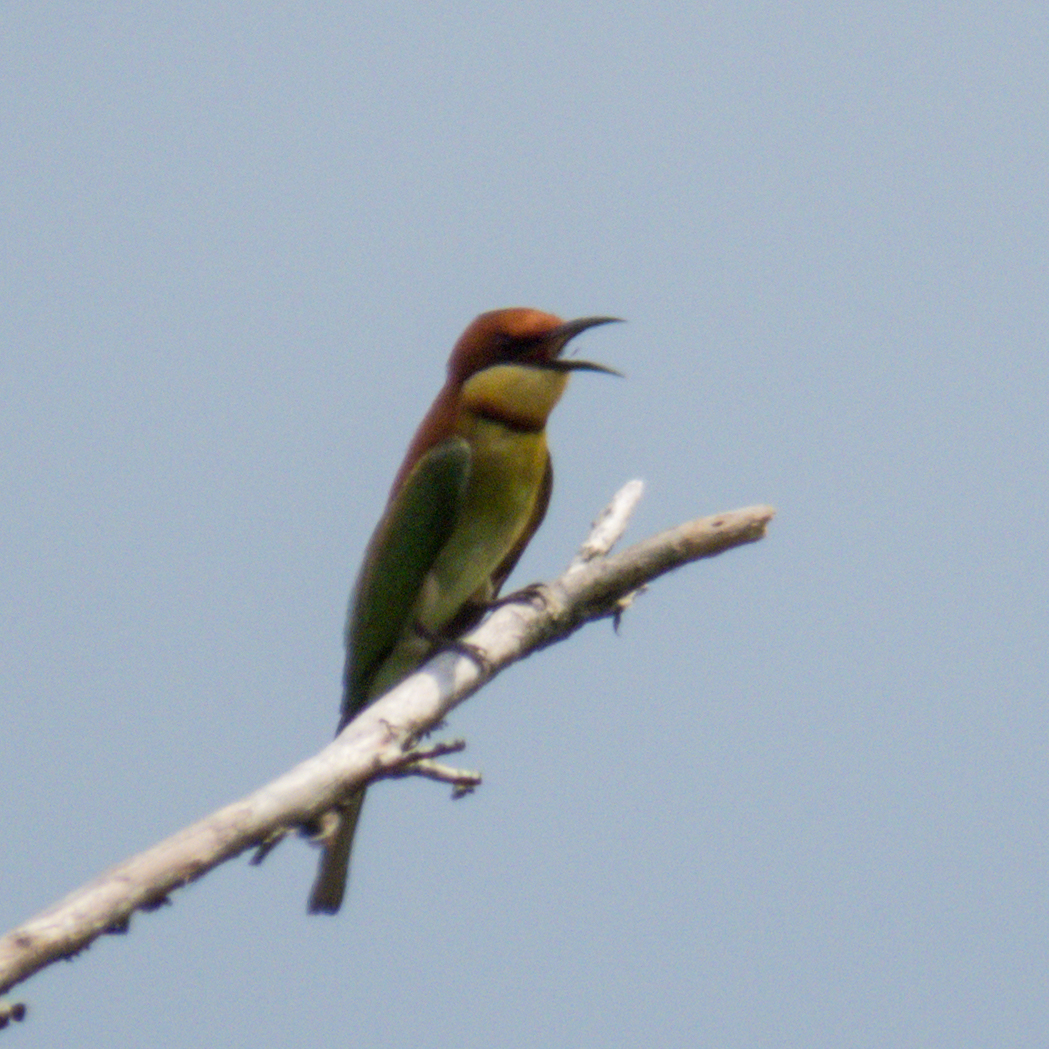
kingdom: Animalia
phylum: Chordata
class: Aves
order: Coraciiformes
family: Meropidae
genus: Merops
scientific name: Merops leschenaulti
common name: Chestnut-headed bee-eater
